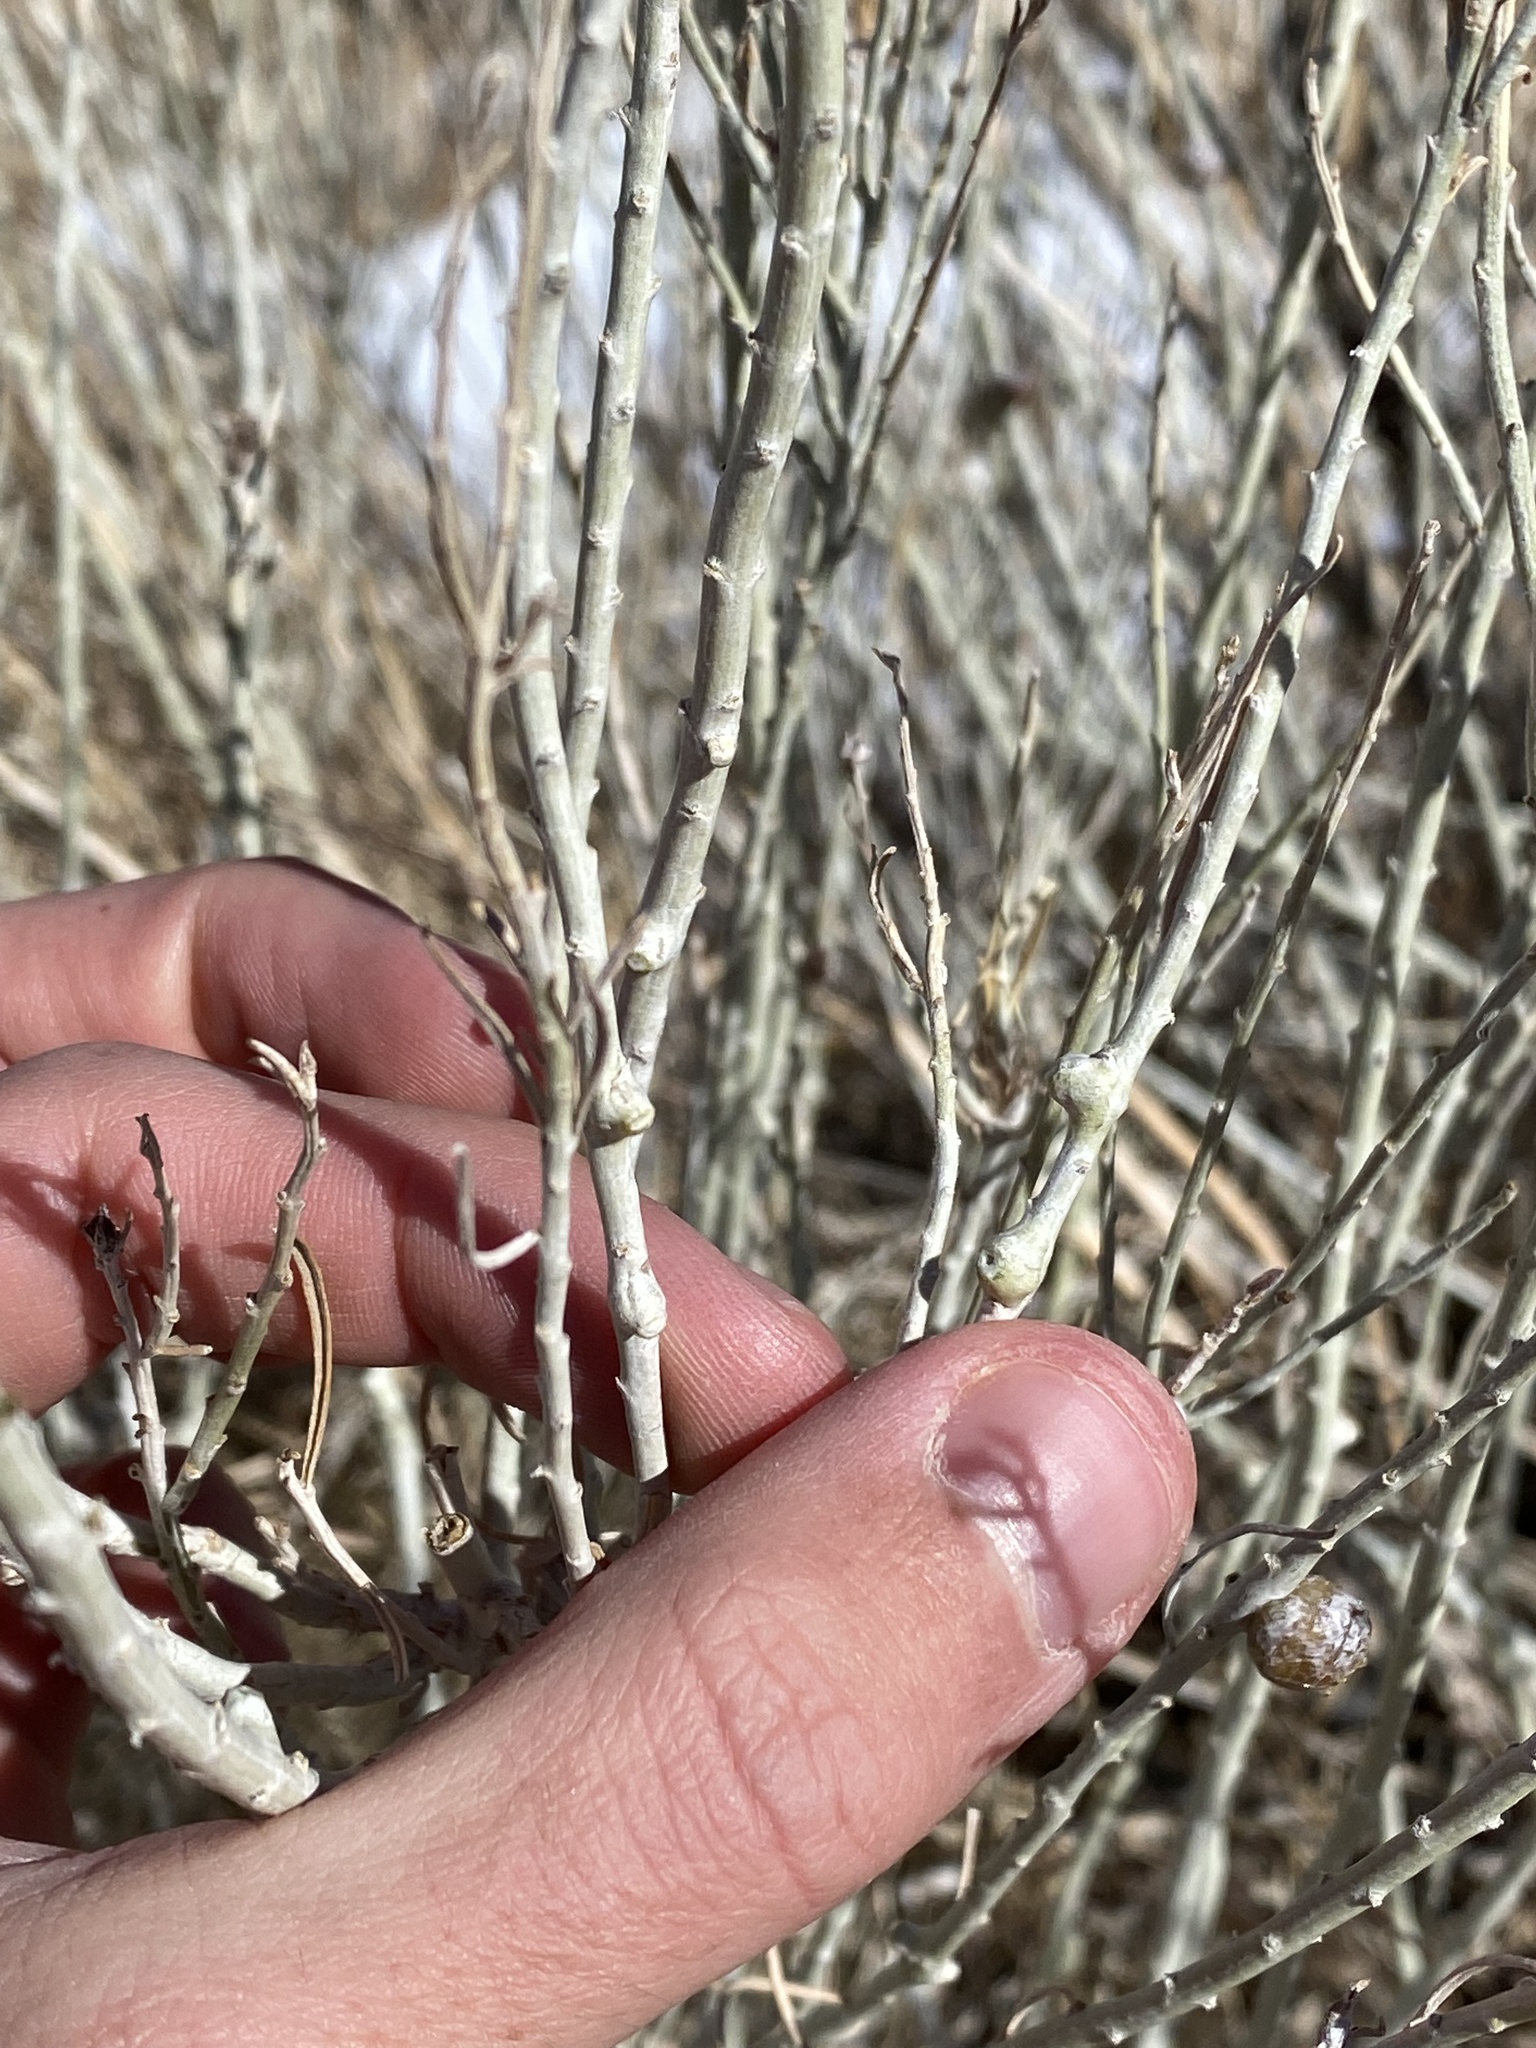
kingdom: Animalia
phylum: Arthropoda
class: Insecta
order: Diptera
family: Cecidomyiidae
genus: Rhopalomyia
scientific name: Rhopalomyia chrysothamni
